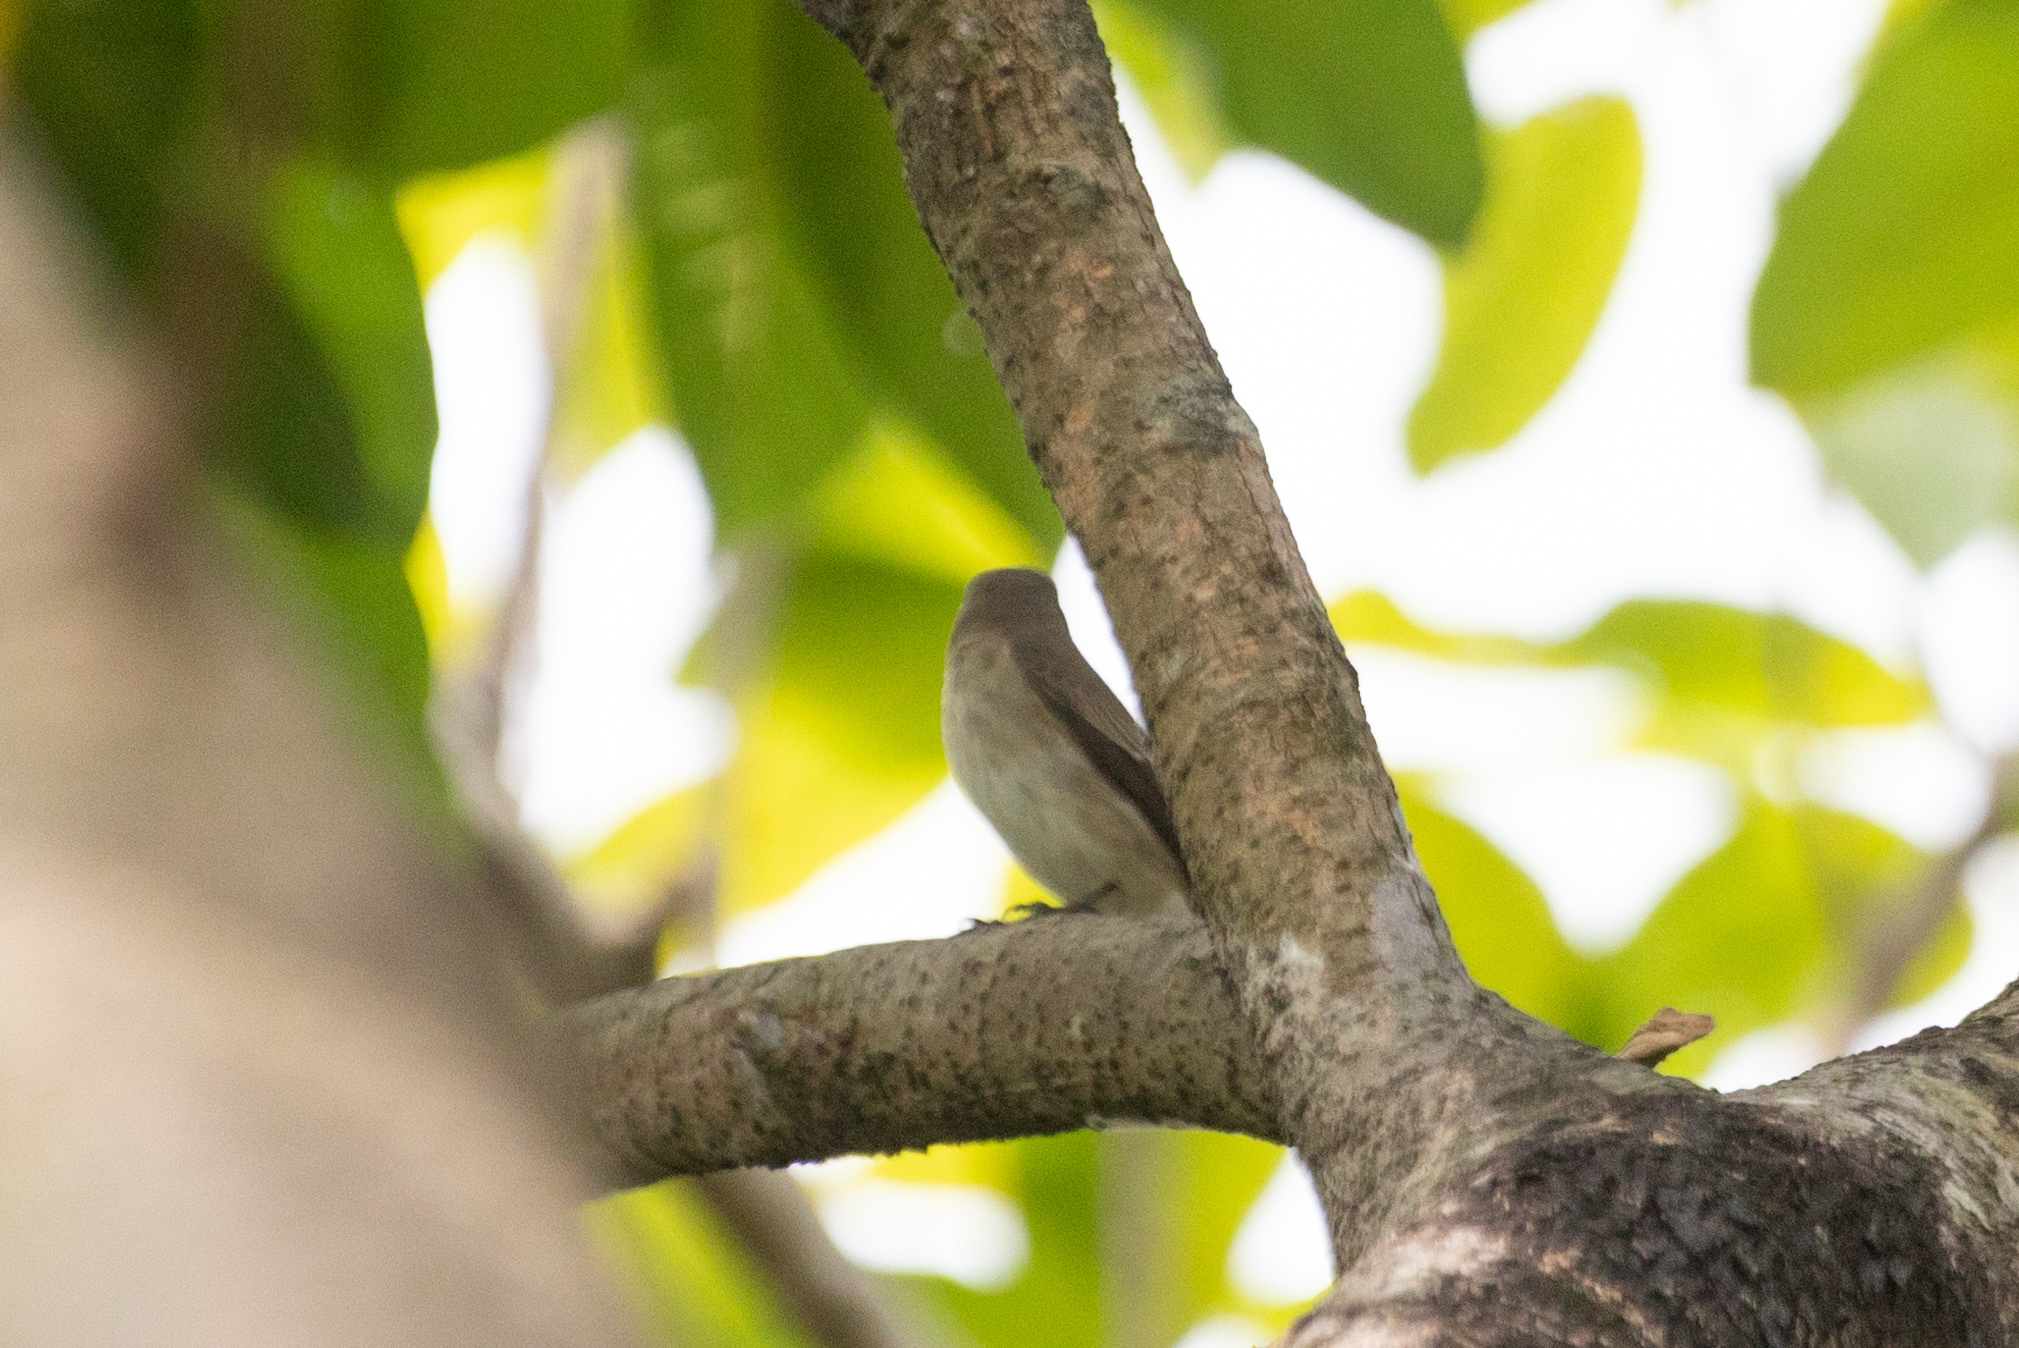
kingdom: Animalia
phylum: Chordata
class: Aves
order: Passeriformes
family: Muscicapidae
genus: Muscicapa
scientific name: Muscicapa latirostris
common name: Asian brown flycatcher
